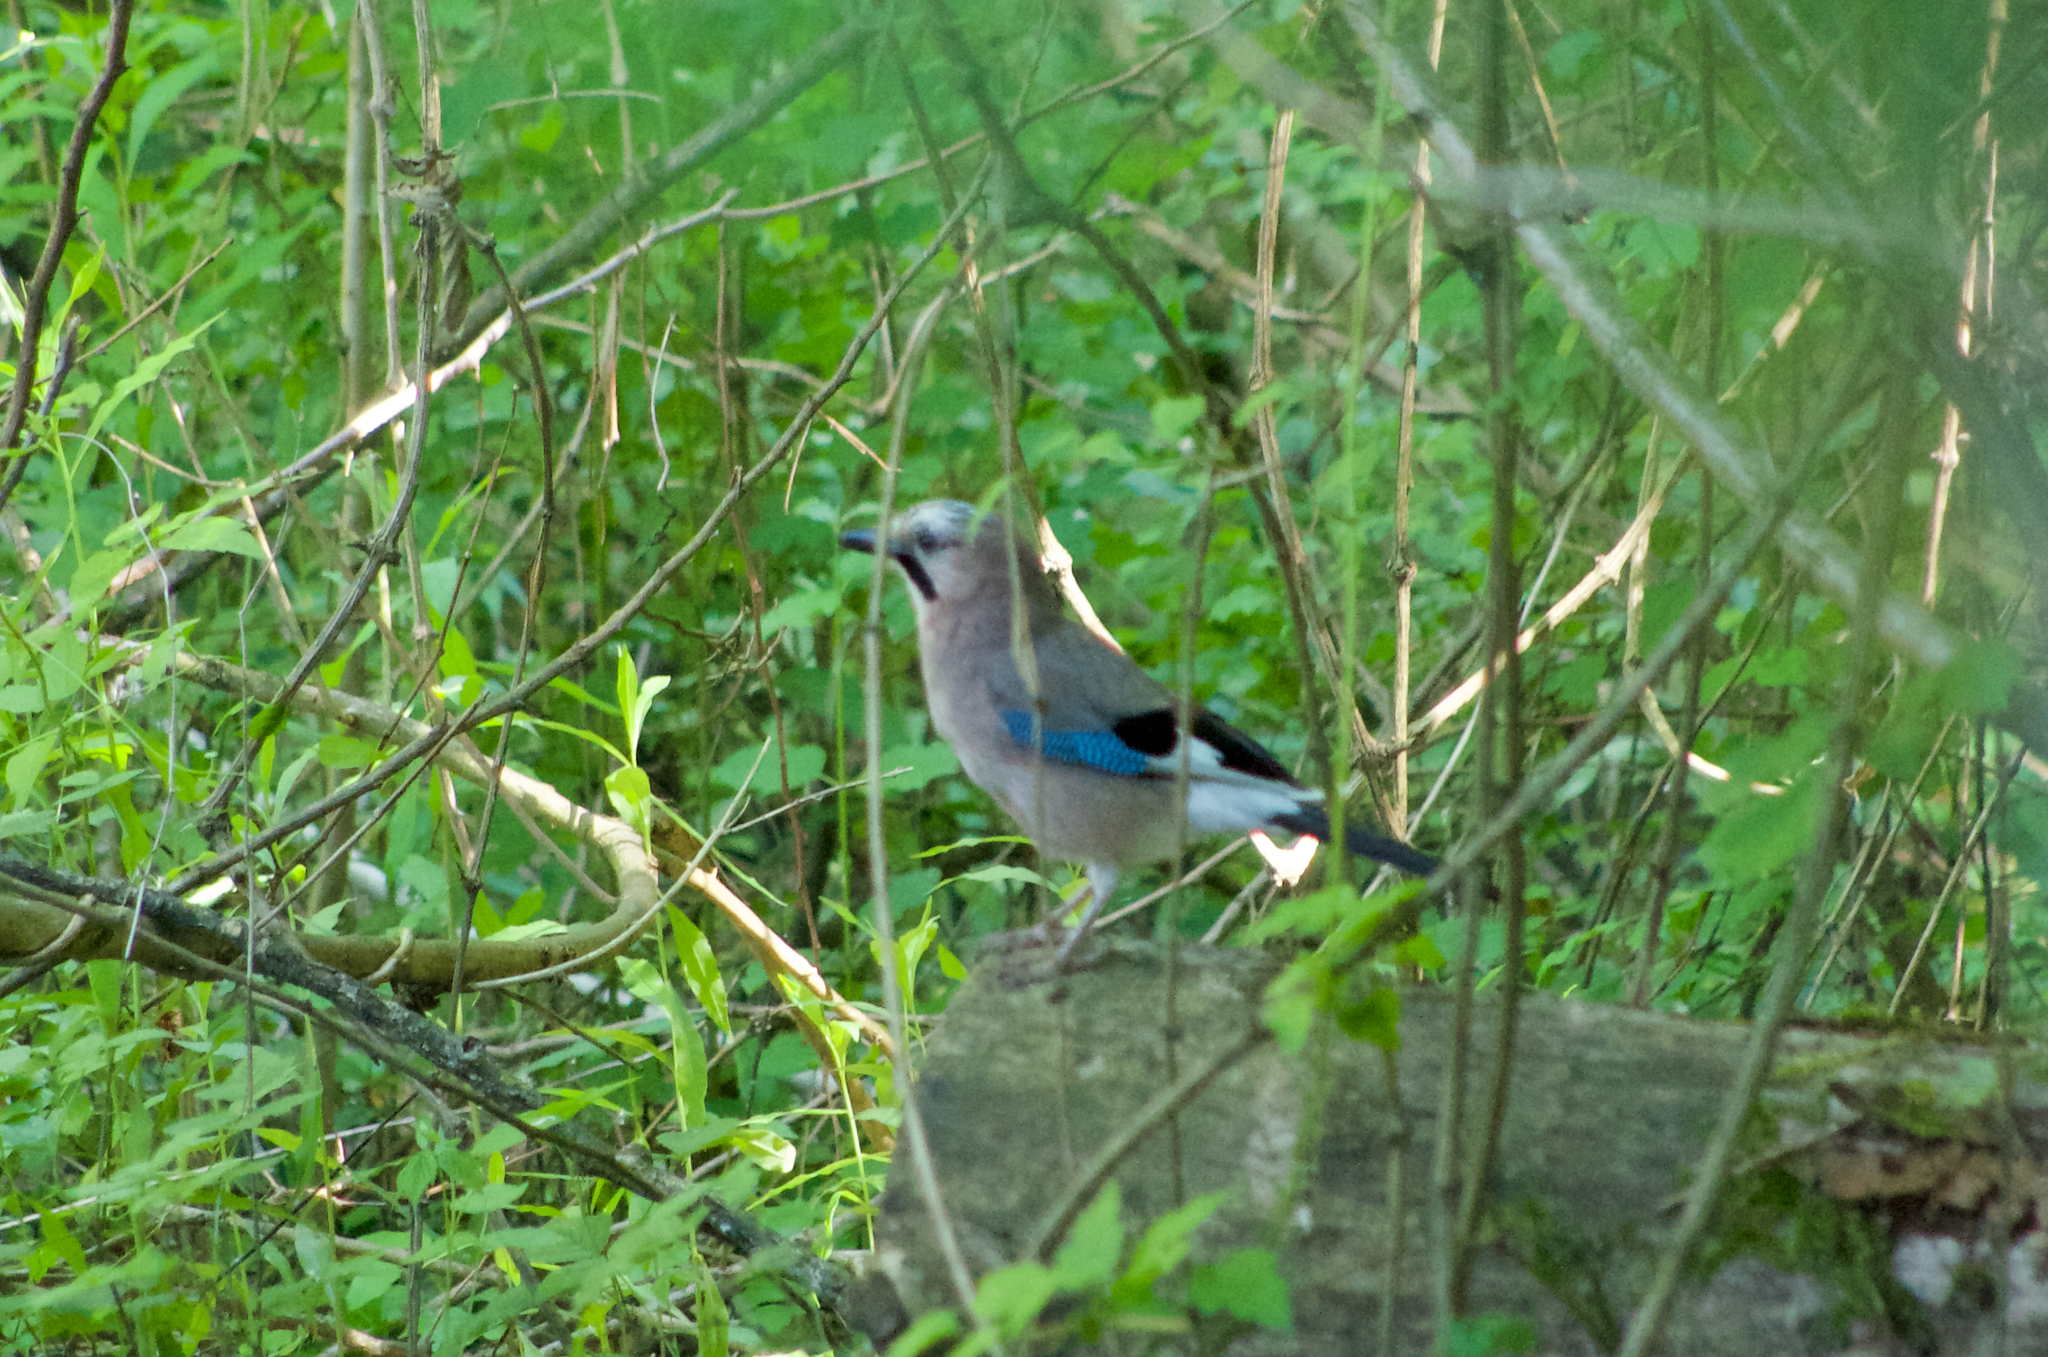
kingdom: Animalia
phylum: Chordata
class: Aves
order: Passeriformes
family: Corvidae
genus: Garrulus
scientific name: Garrulus glandarius
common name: Eurasian jay
